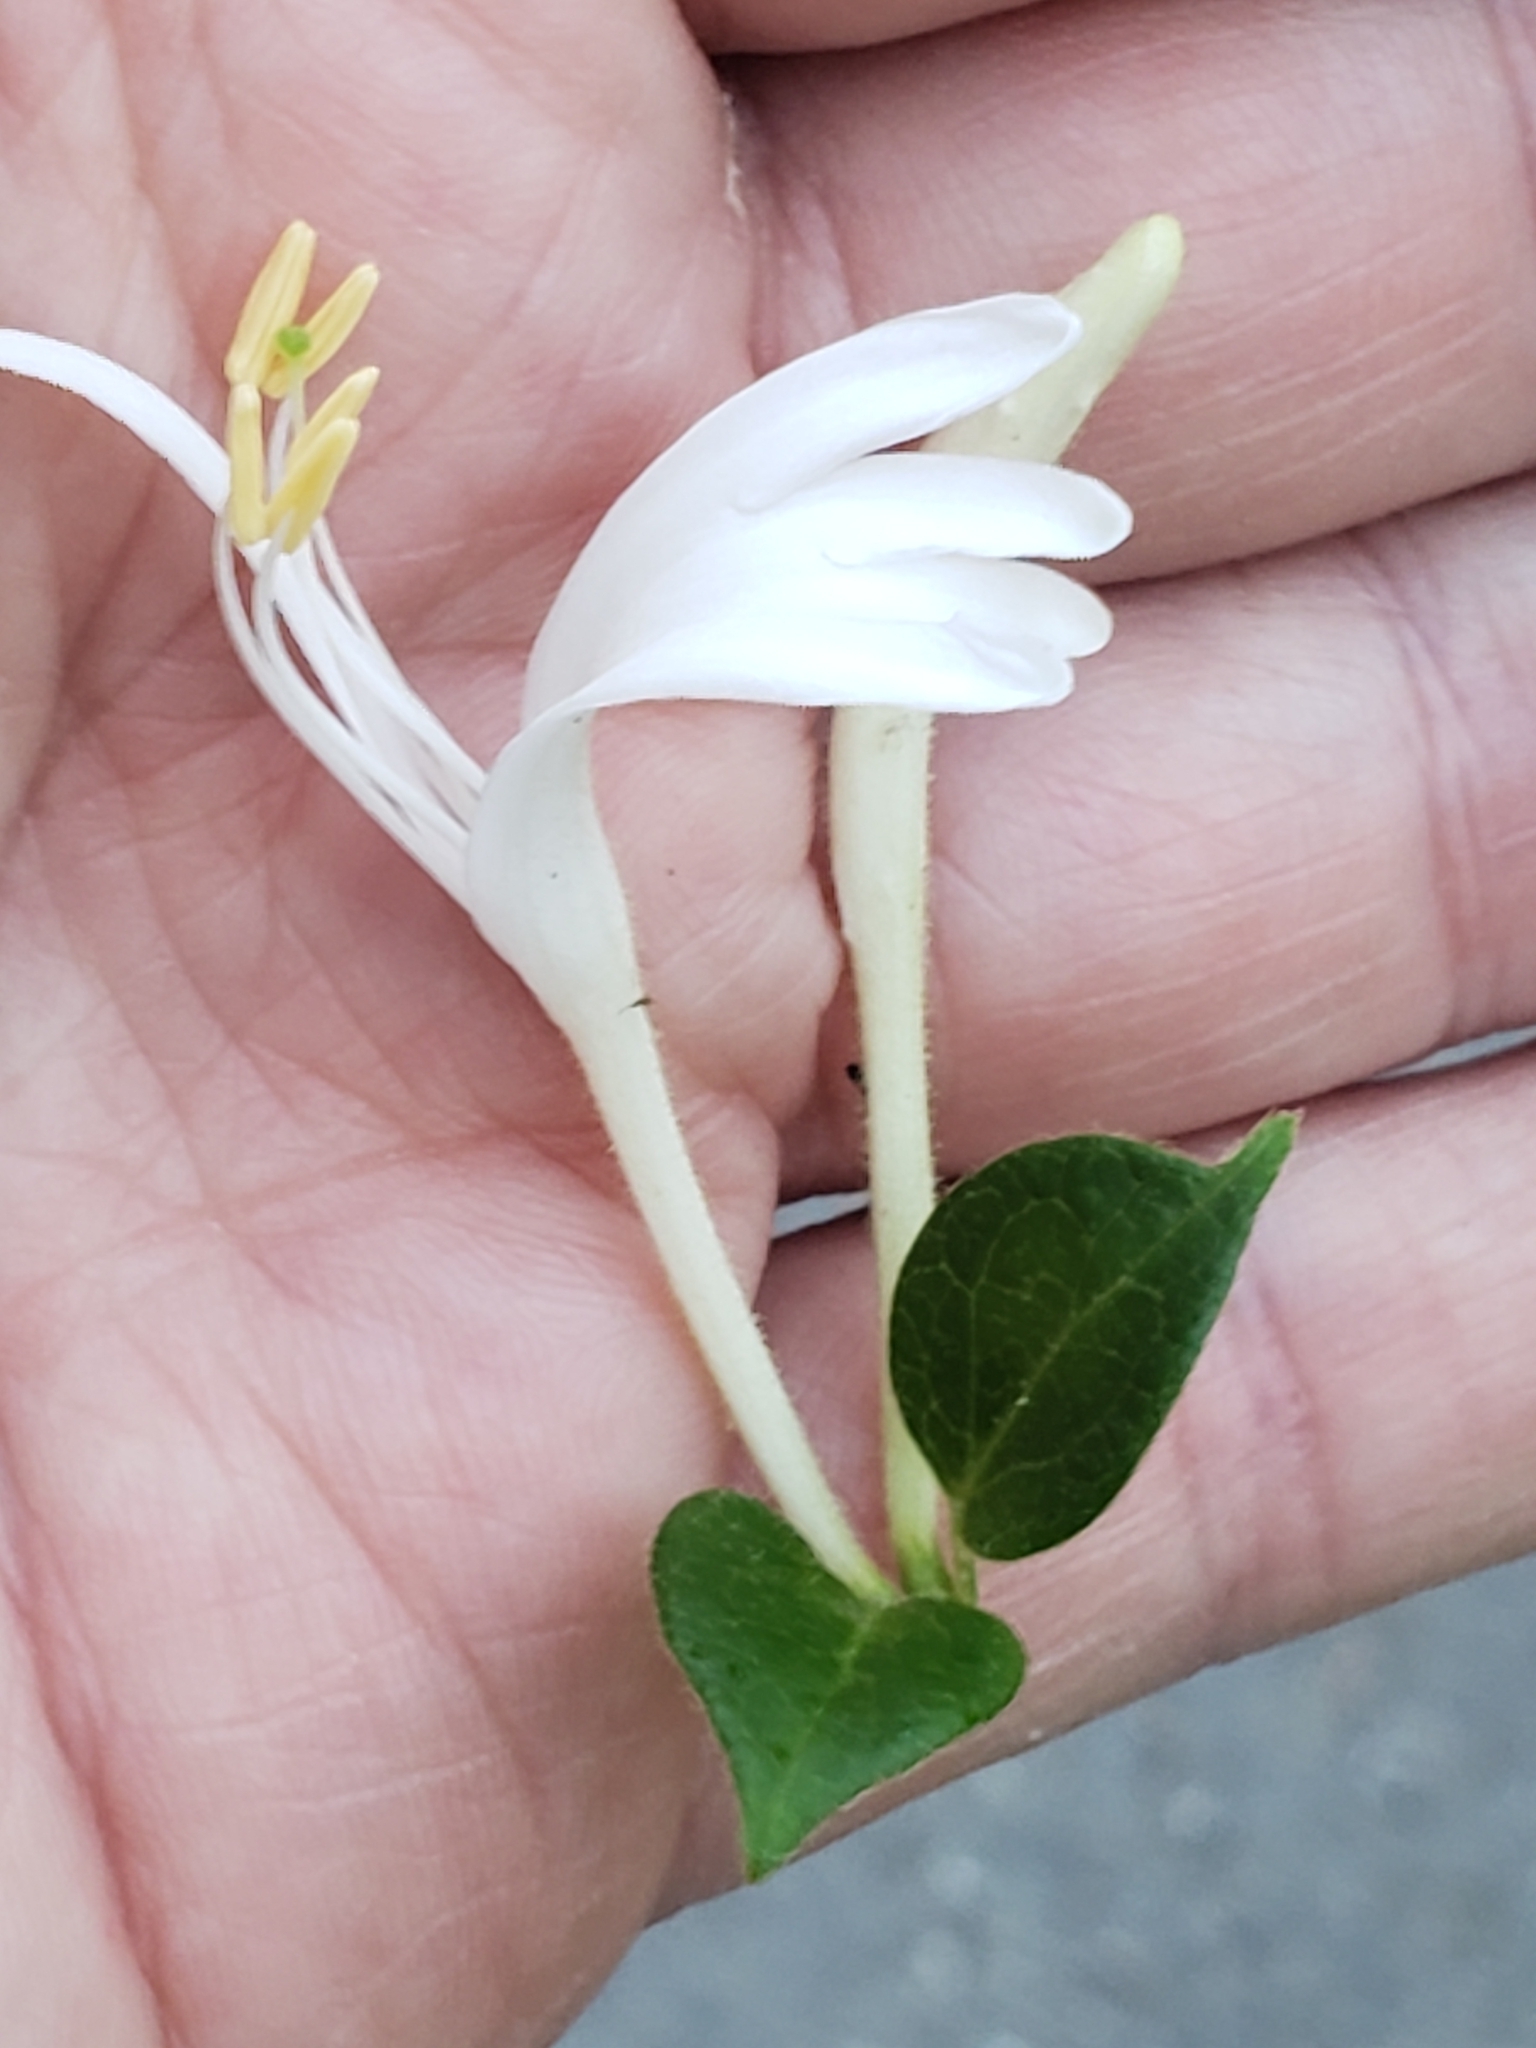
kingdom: Plantae
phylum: Tracheophyta
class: Magnoliopsida
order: Dipsacales
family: Caprifoliaceae
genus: Lonicera
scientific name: Lonicera japonica
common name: Japanese honeysuckle
